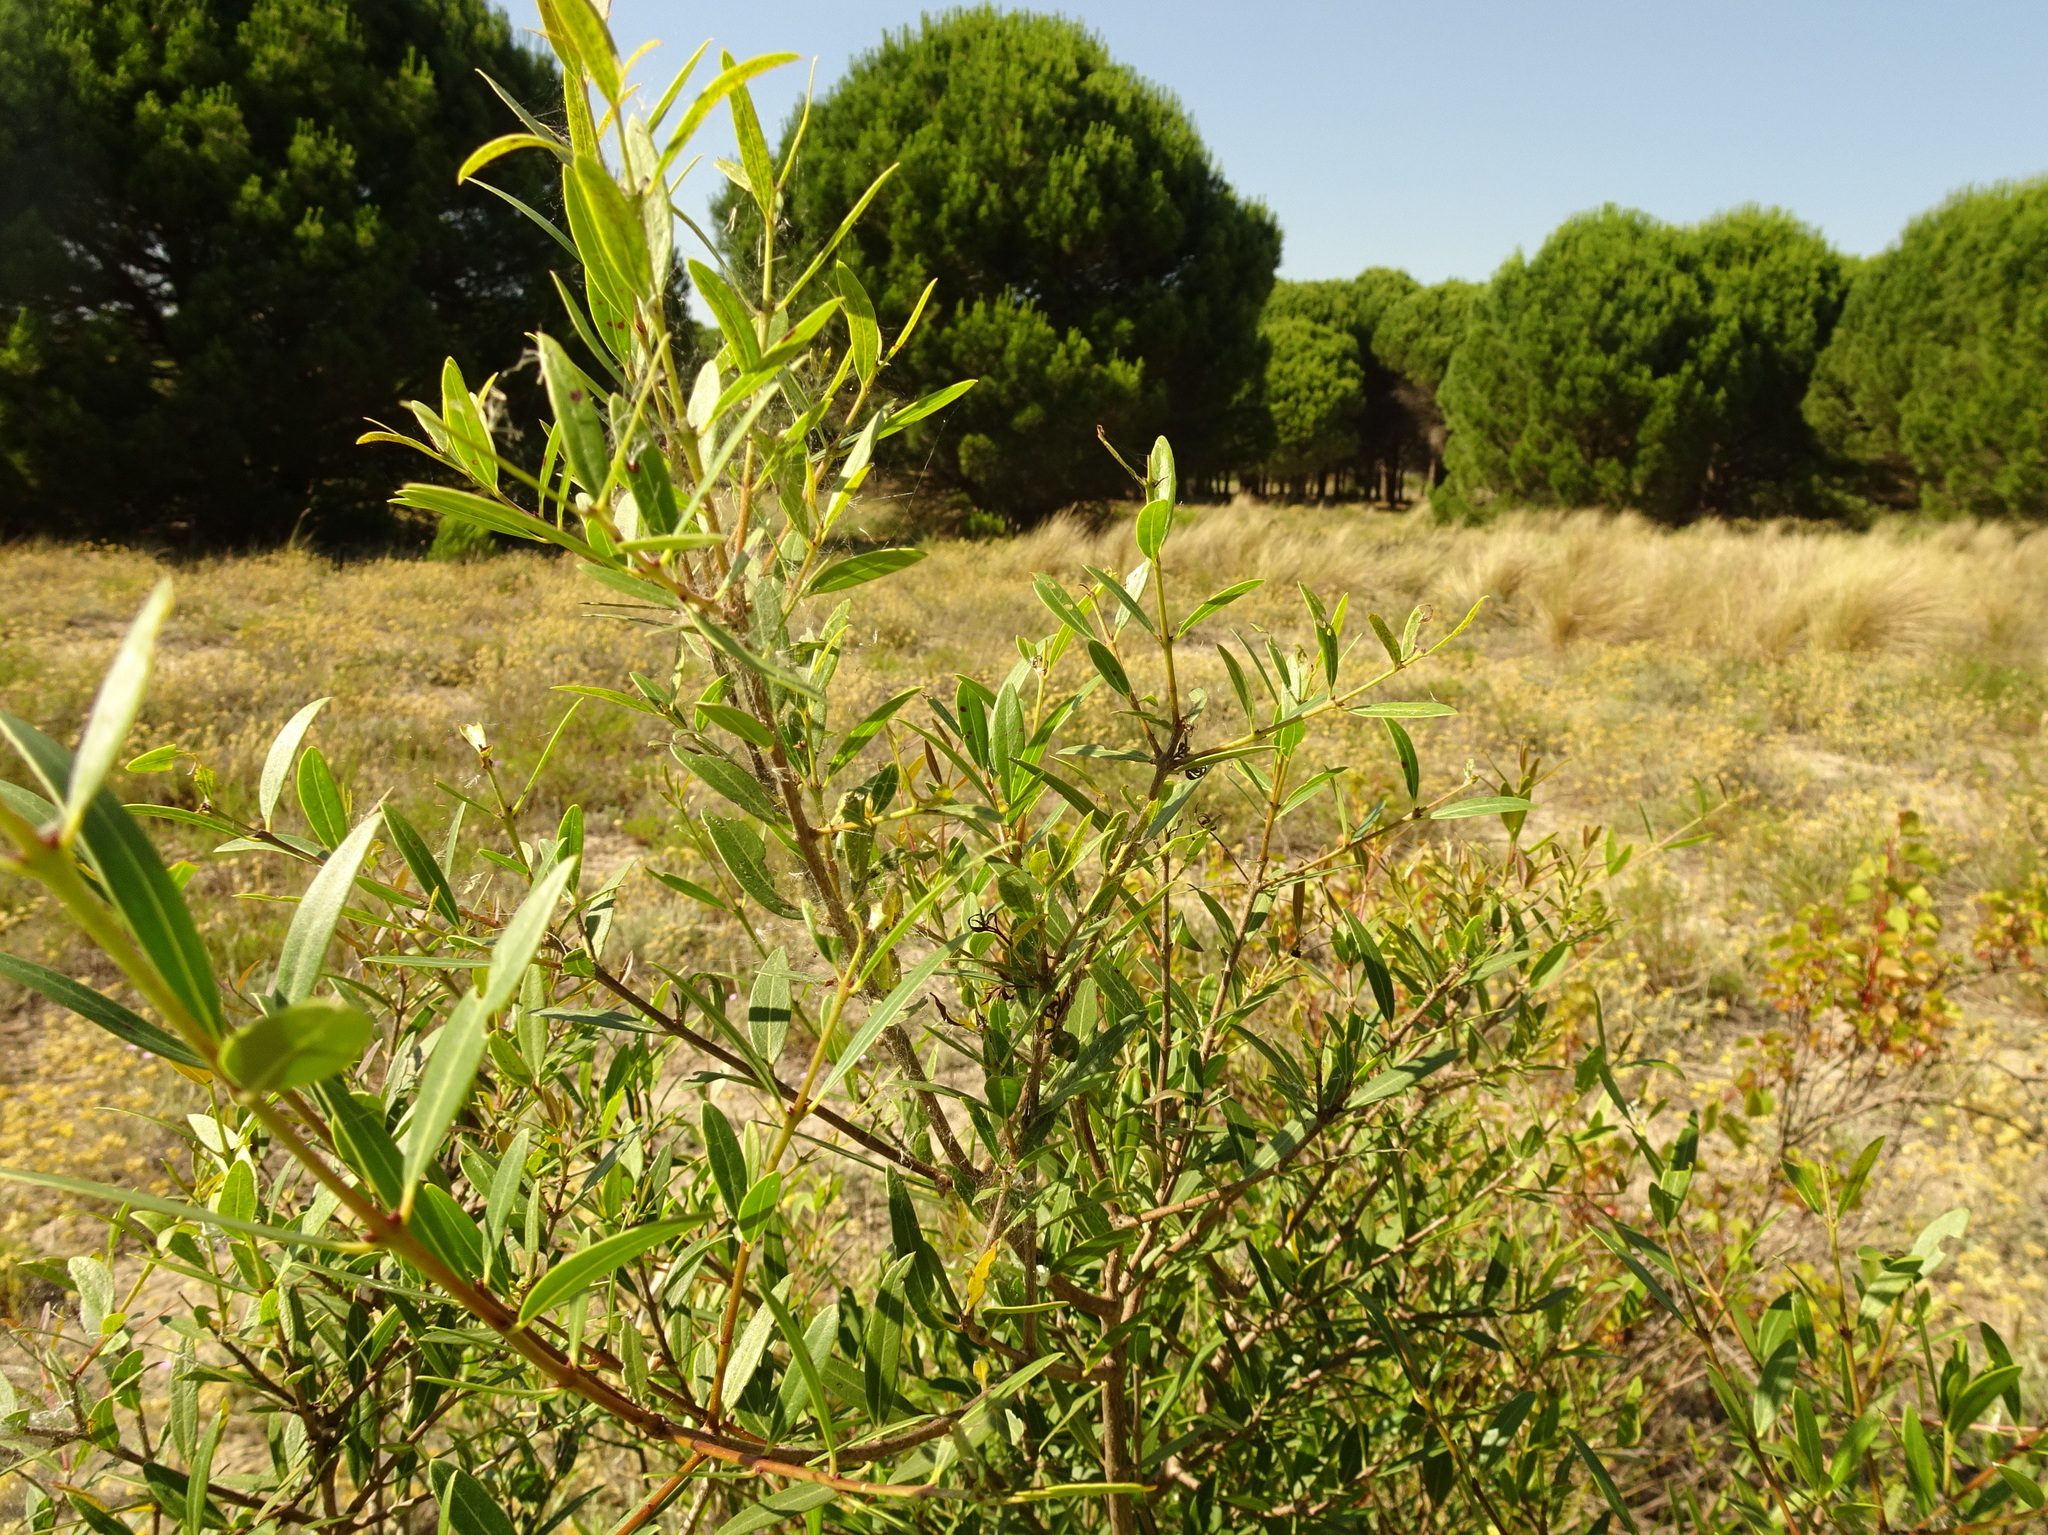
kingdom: Plantae
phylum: Tracheophyta
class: Magnoliopsida
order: Lamiales
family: Oleaceae
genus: Phillyrea
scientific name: Phillyrea angustifolia
